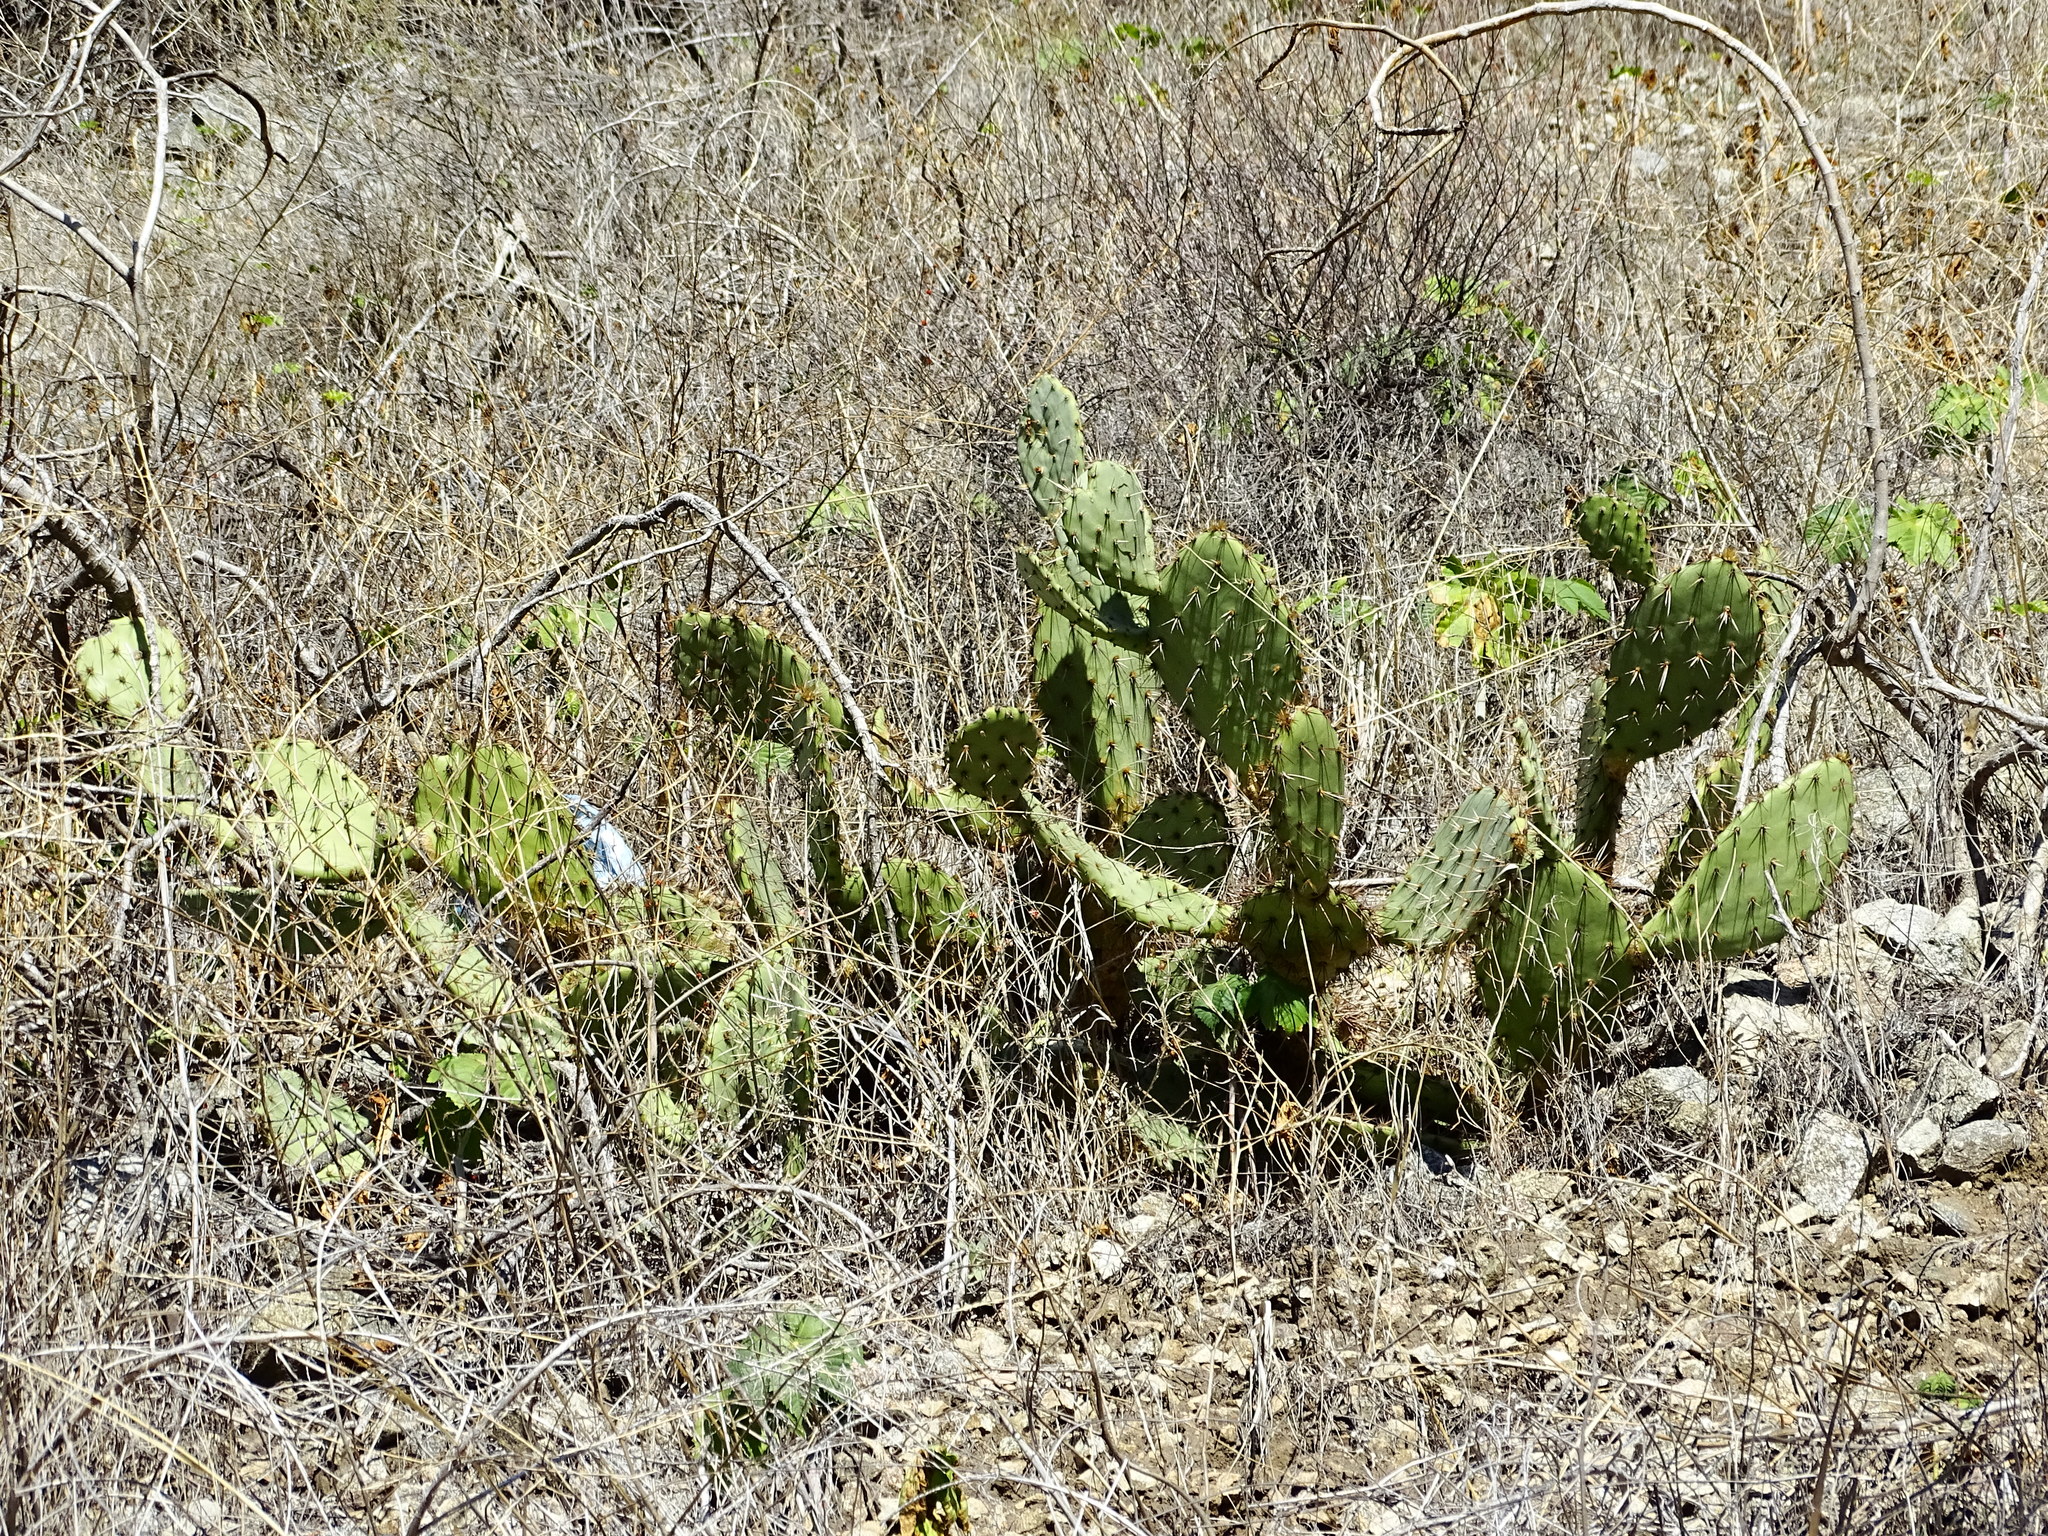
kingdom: Plantae
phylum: Tracheophyta
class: Magnoliopsida
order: Caryophyllales
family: Cactaceae
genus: Opuntia
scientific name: Opuntia littoralis
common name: Coastal prickly-pear
